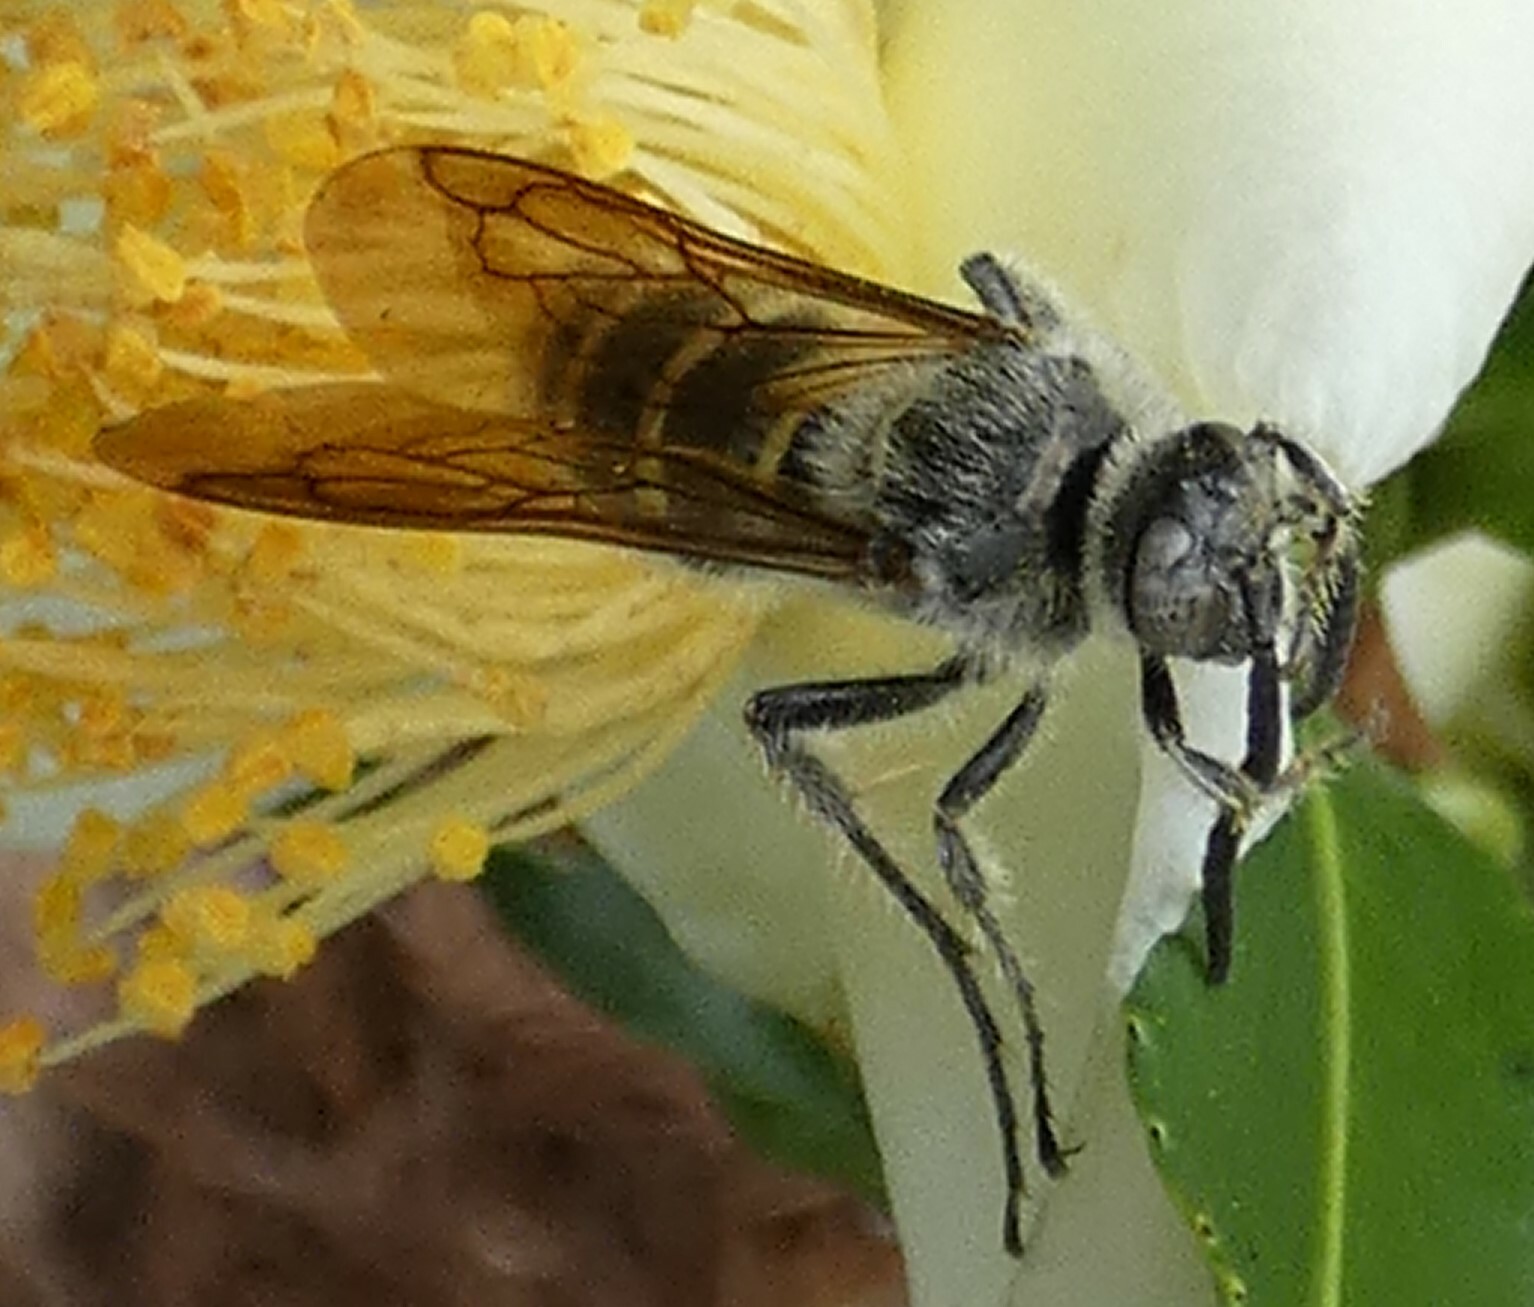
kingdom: Animalia
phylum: Arthropoda
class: Insecta
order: Hymenoptera
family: Scoliidae
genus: Dielis
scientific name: Dielis
